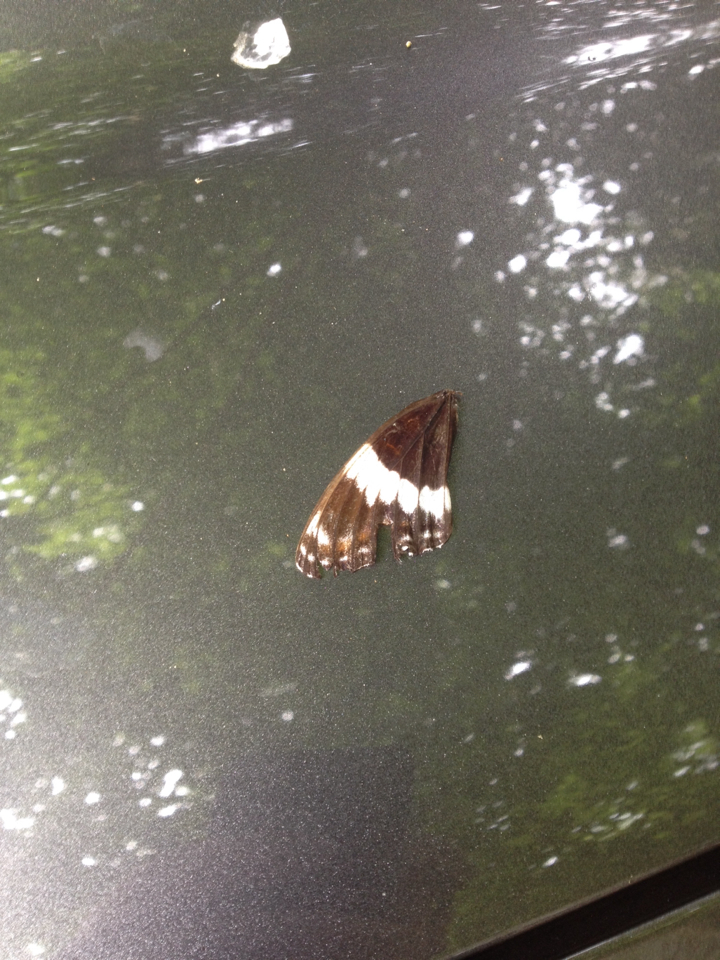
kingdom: Animalia
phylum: Arthropoda
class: Insecta
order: Lepidoptera
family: Nymphalidae
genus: Limenitis
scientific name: Limenitis arthemis
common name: Red-spotted admiral
